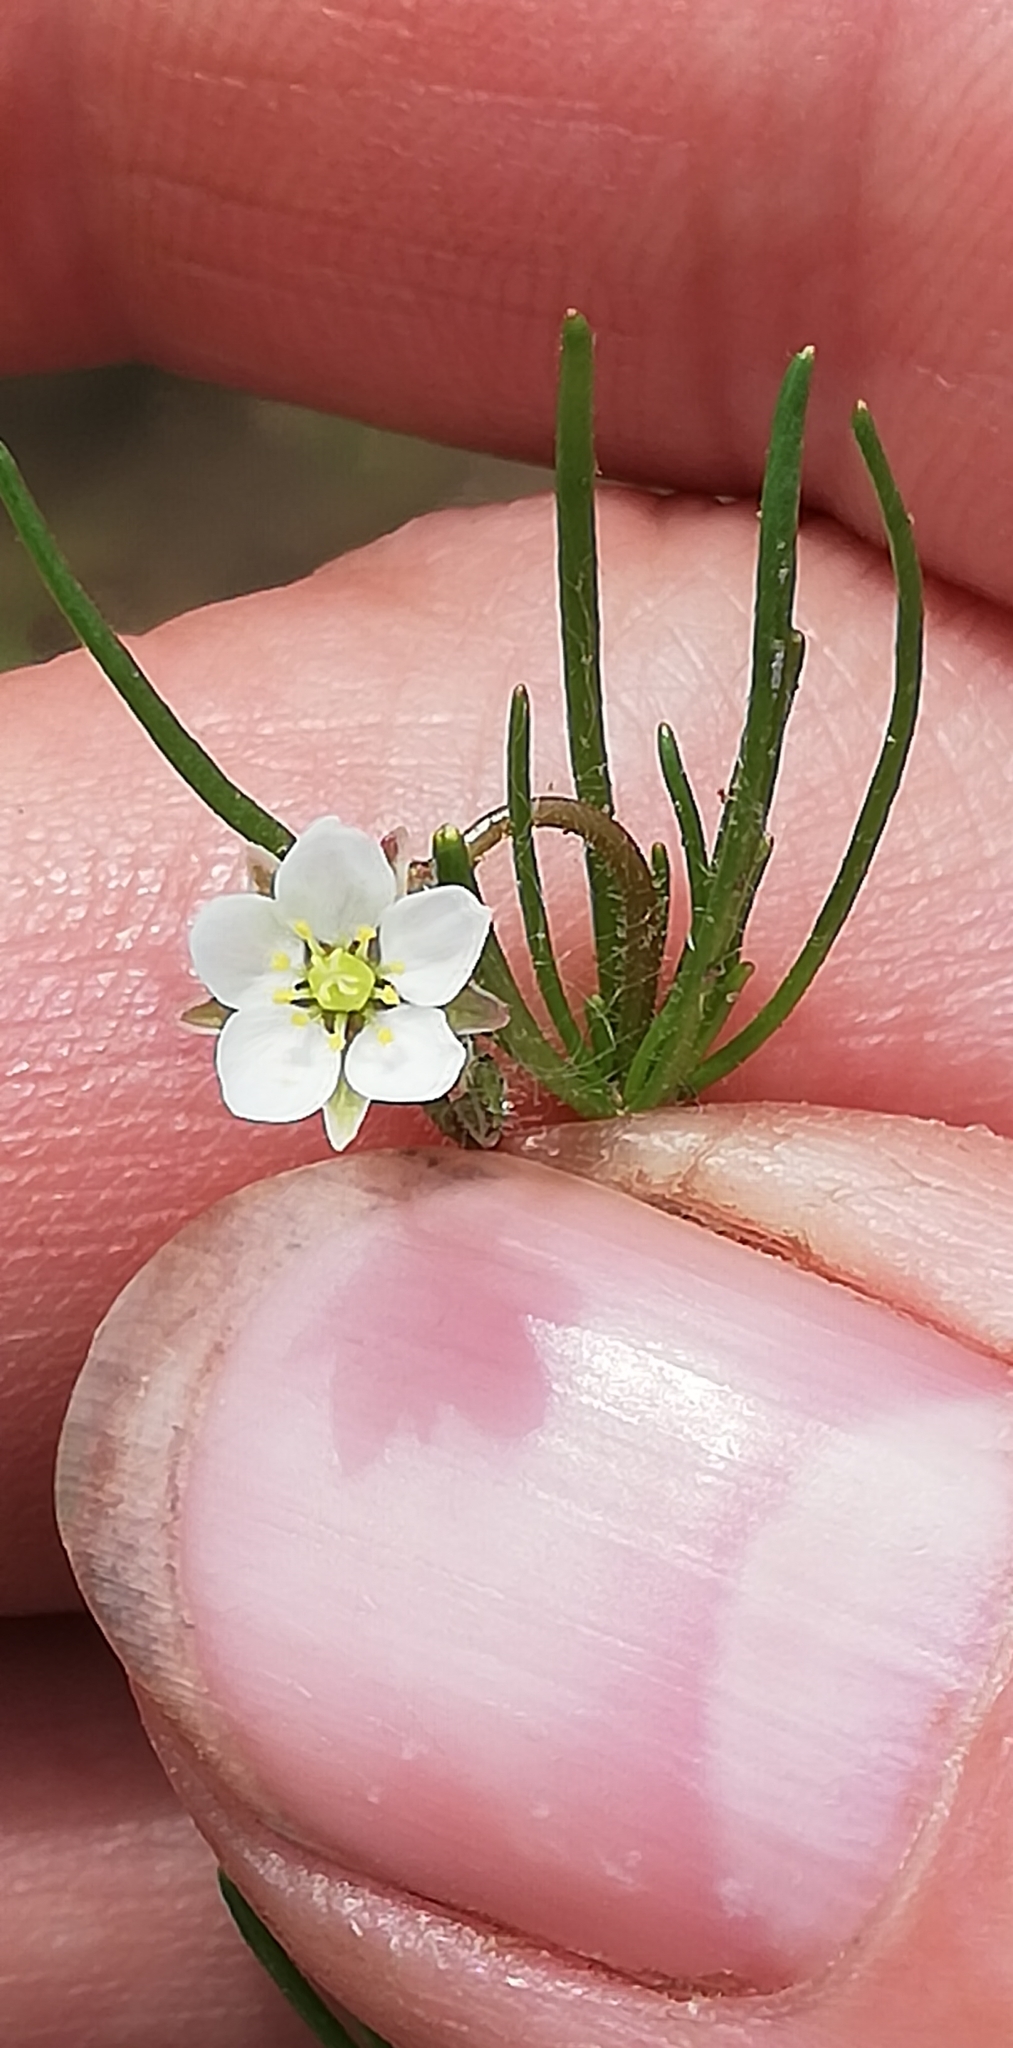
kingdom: Plantae
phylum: Tracheophyta
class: Magnoliopsida
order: Caryophyllales
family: Caryophyllaceae
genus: Spergula
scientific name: Spergula arvensis
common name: Corn spurrey
